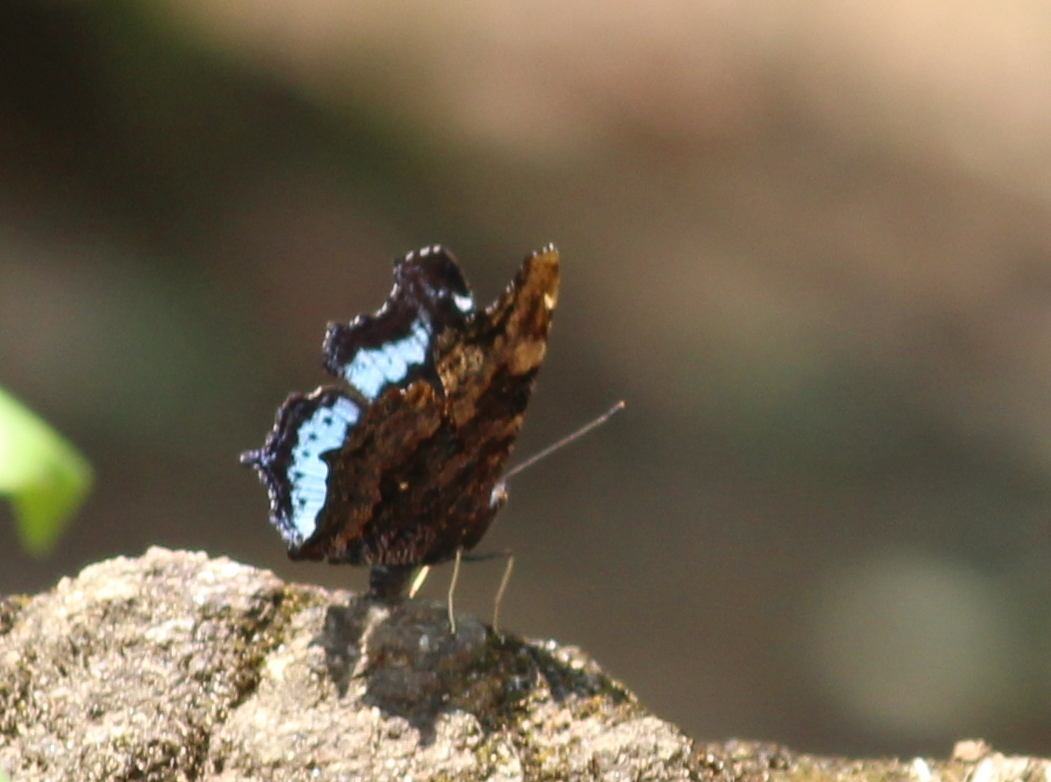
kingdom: Animalia
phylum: Arthropoda
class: Insecta
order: Lepidoptera
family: Nymphalidae
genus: Vanessa
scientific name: Vanessa Kaniska canace
